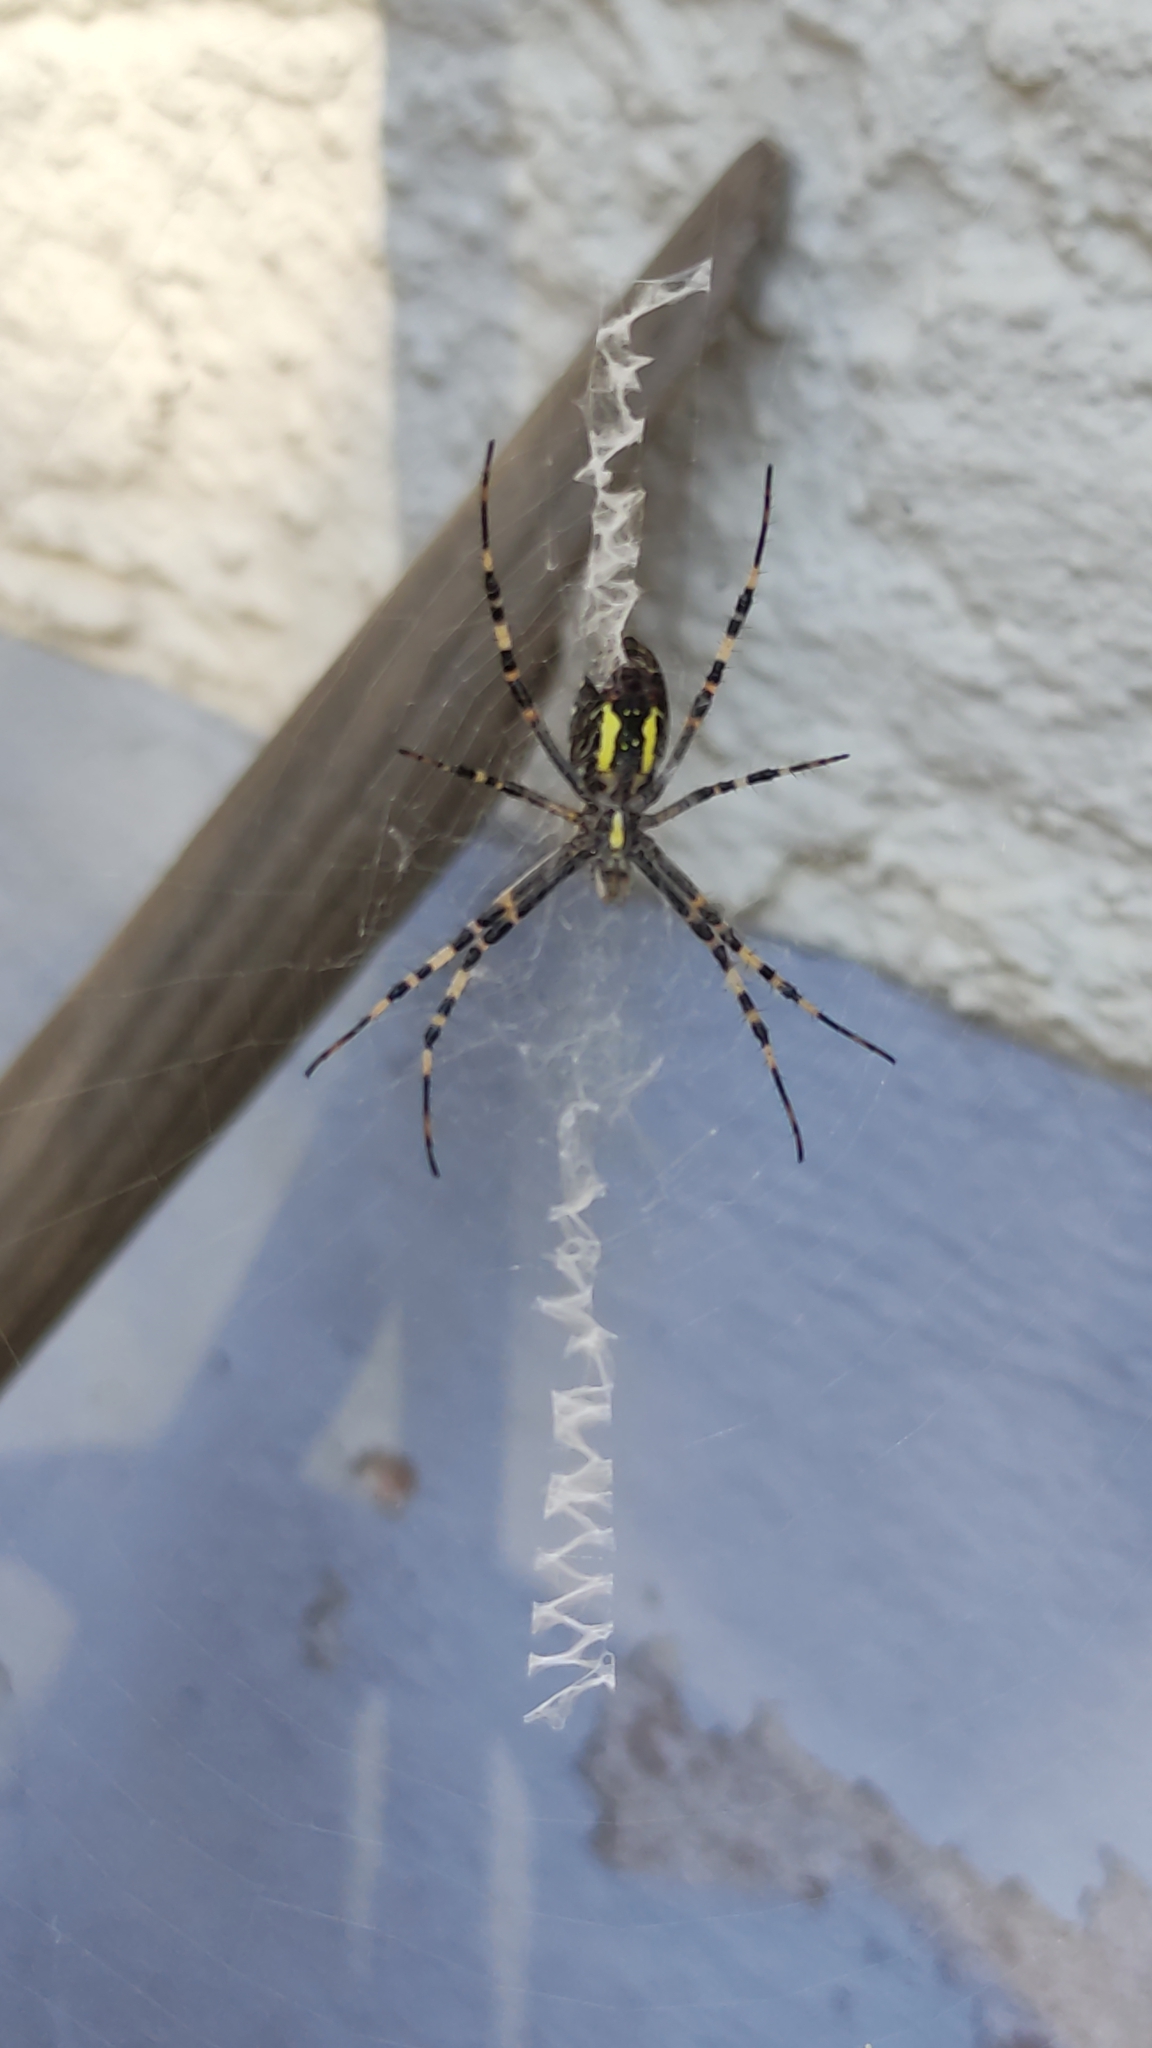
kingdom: Animalia
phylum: Arthropoda
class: Arachnida
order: Araneae
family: Araneidae
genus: Argiope
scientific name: Argiope bruennichi
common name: Wasp spider
